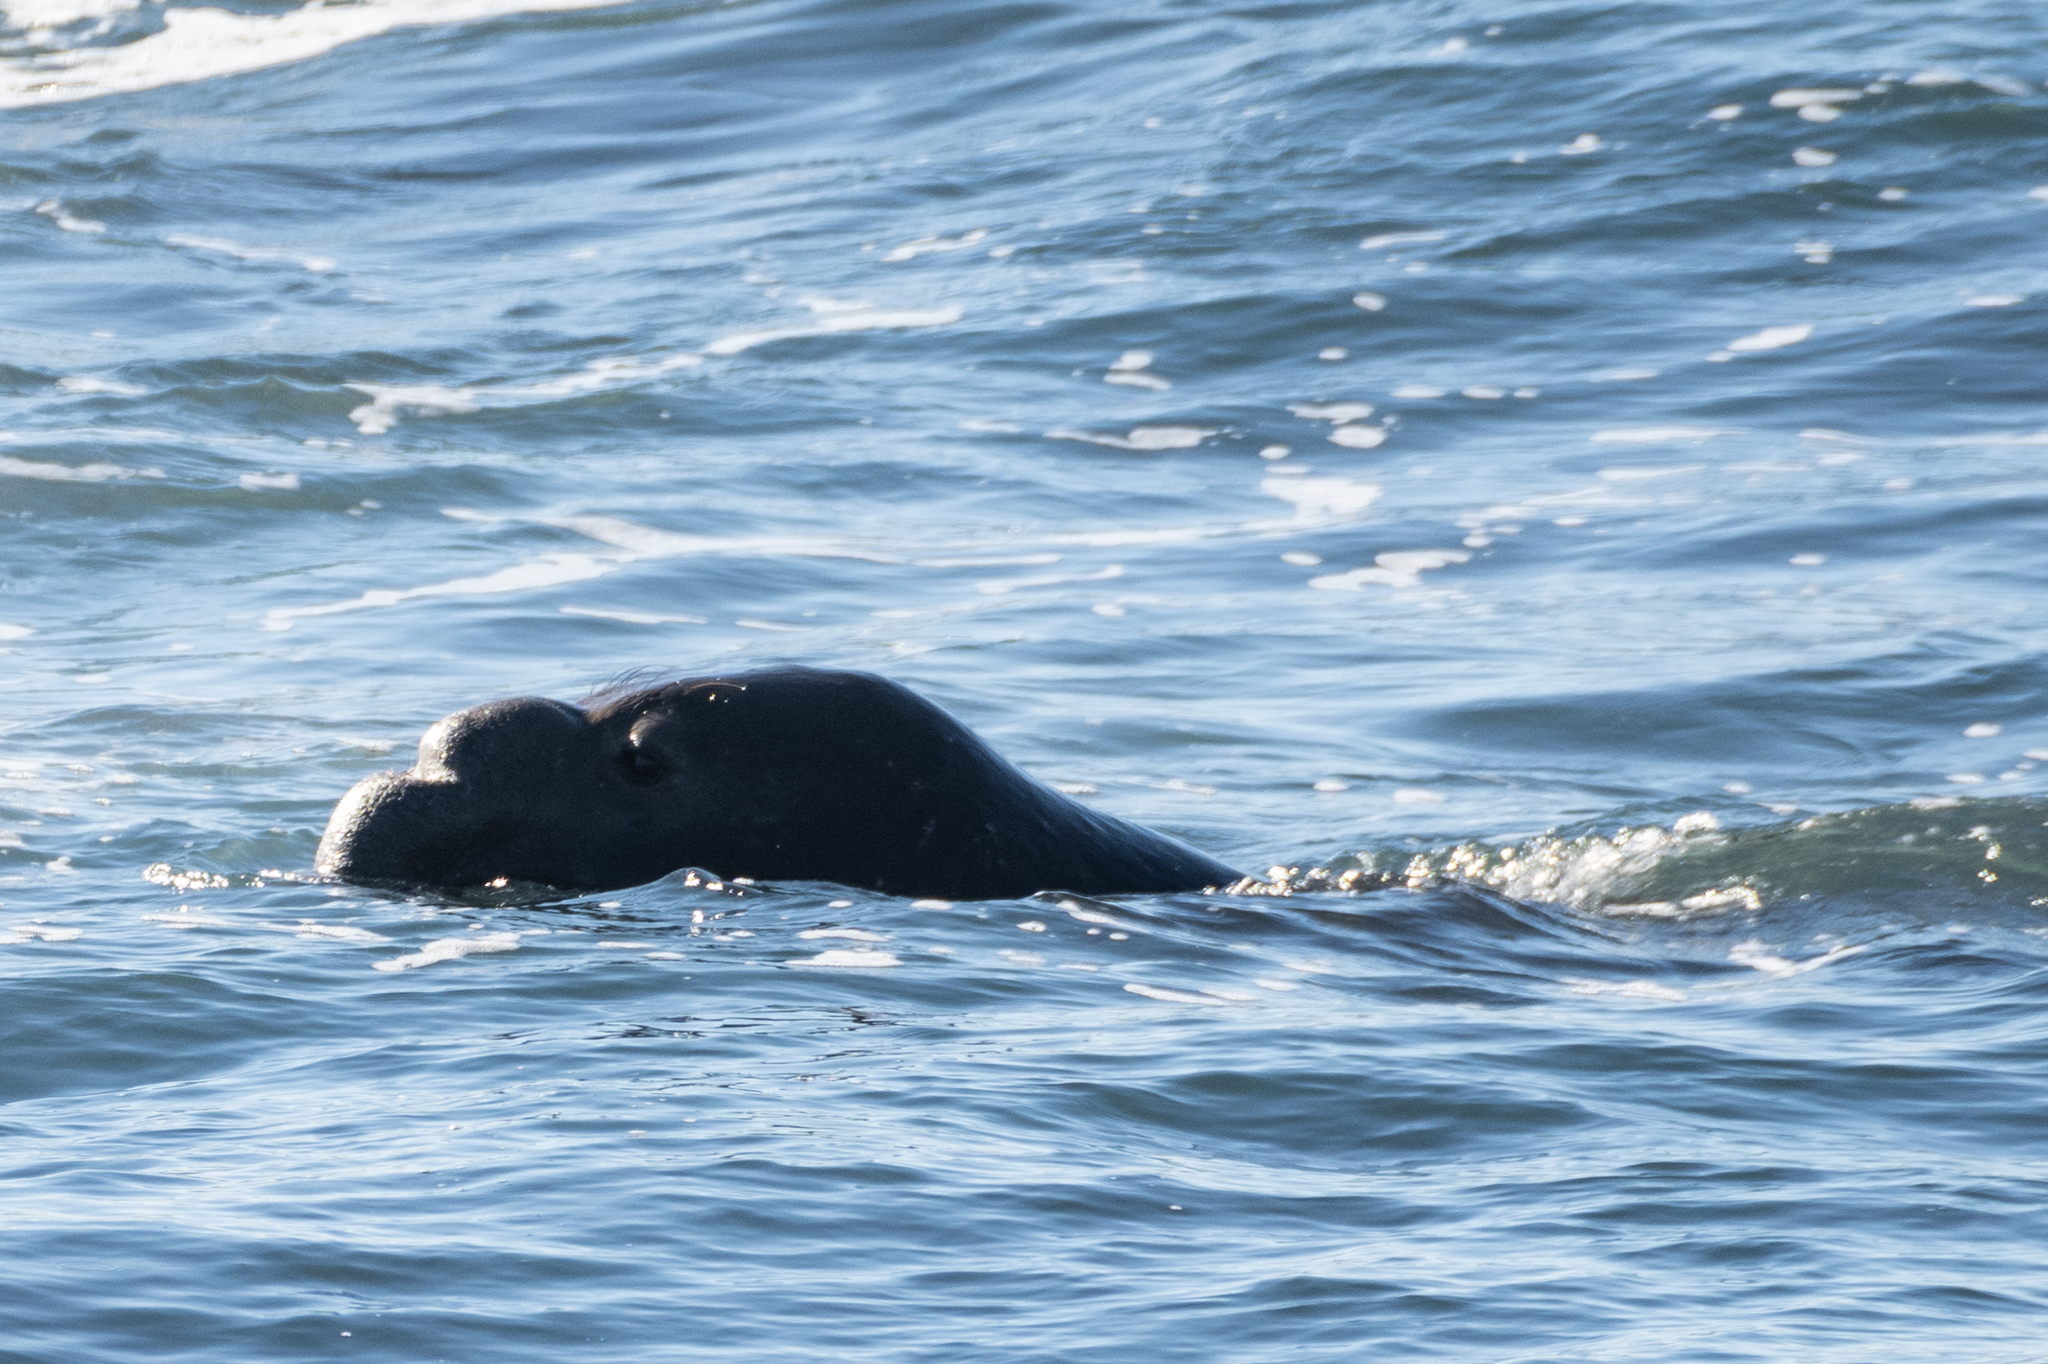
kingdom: Animalia
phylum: Chordata
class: Mammalia
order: Carnivora
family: Phocidae
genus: Mirounga
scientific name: Mirounga angustirostris
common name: Northern elephant seal
